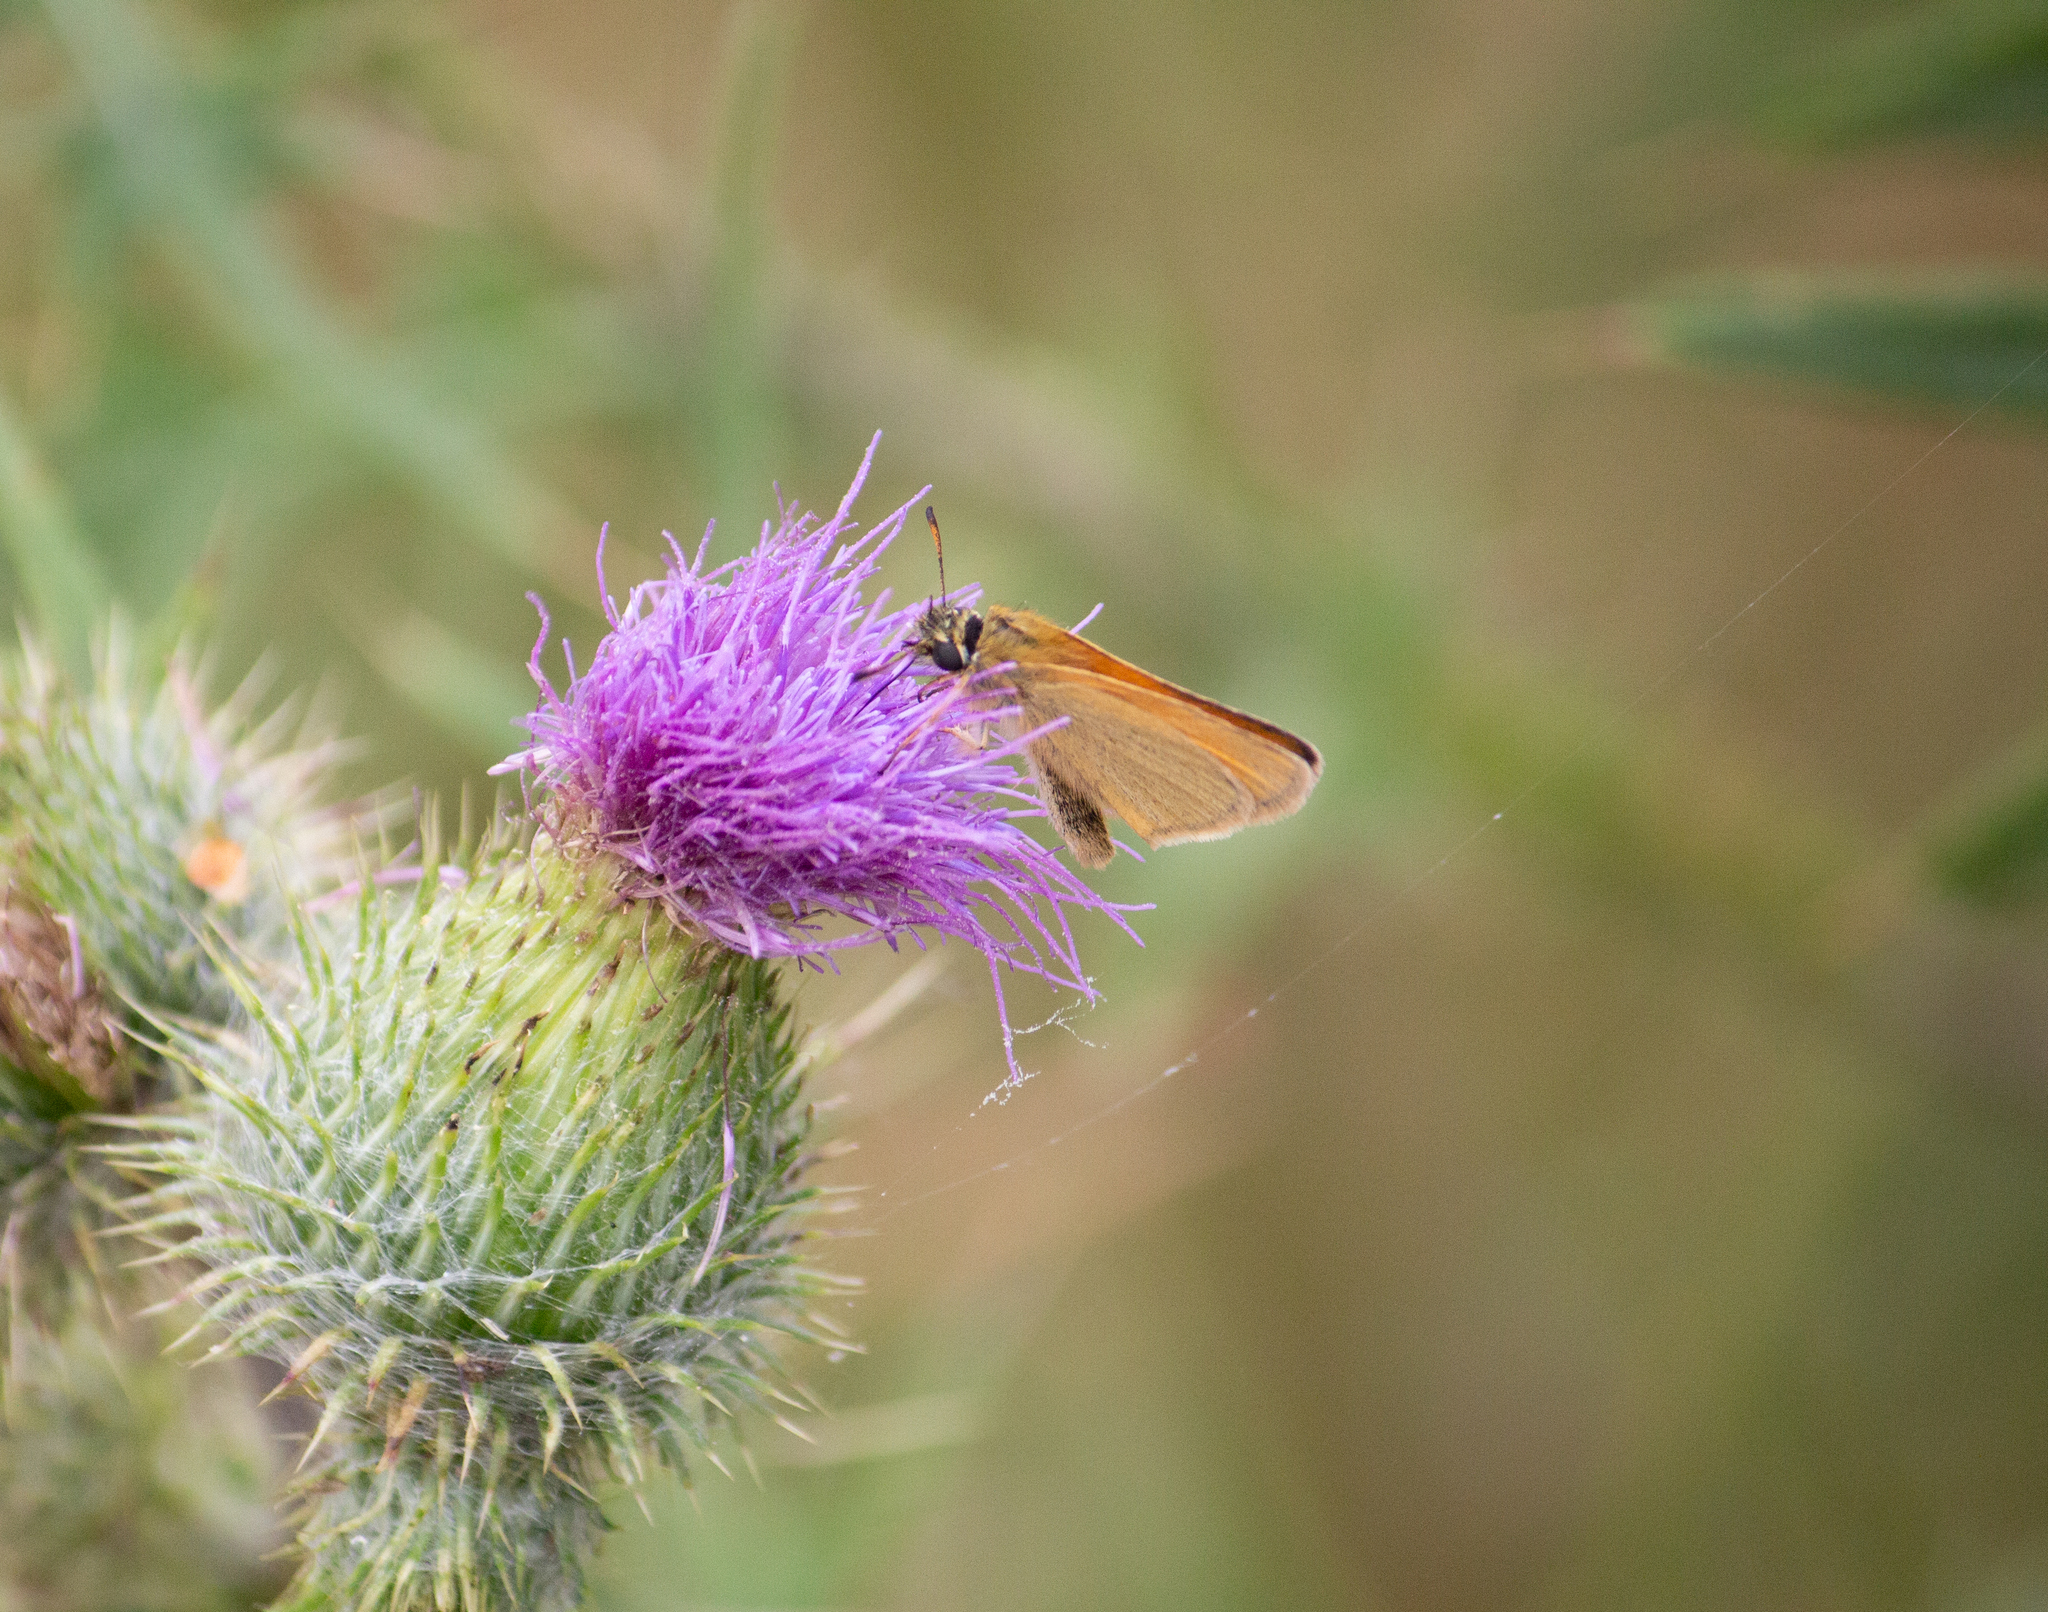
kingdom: Animalia
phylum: Arthropoda
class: Insecta
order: Lepidoptera
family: Hesperiidae
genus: Thymelicus
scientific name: Thymelicus lineola
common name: Essex skipper
